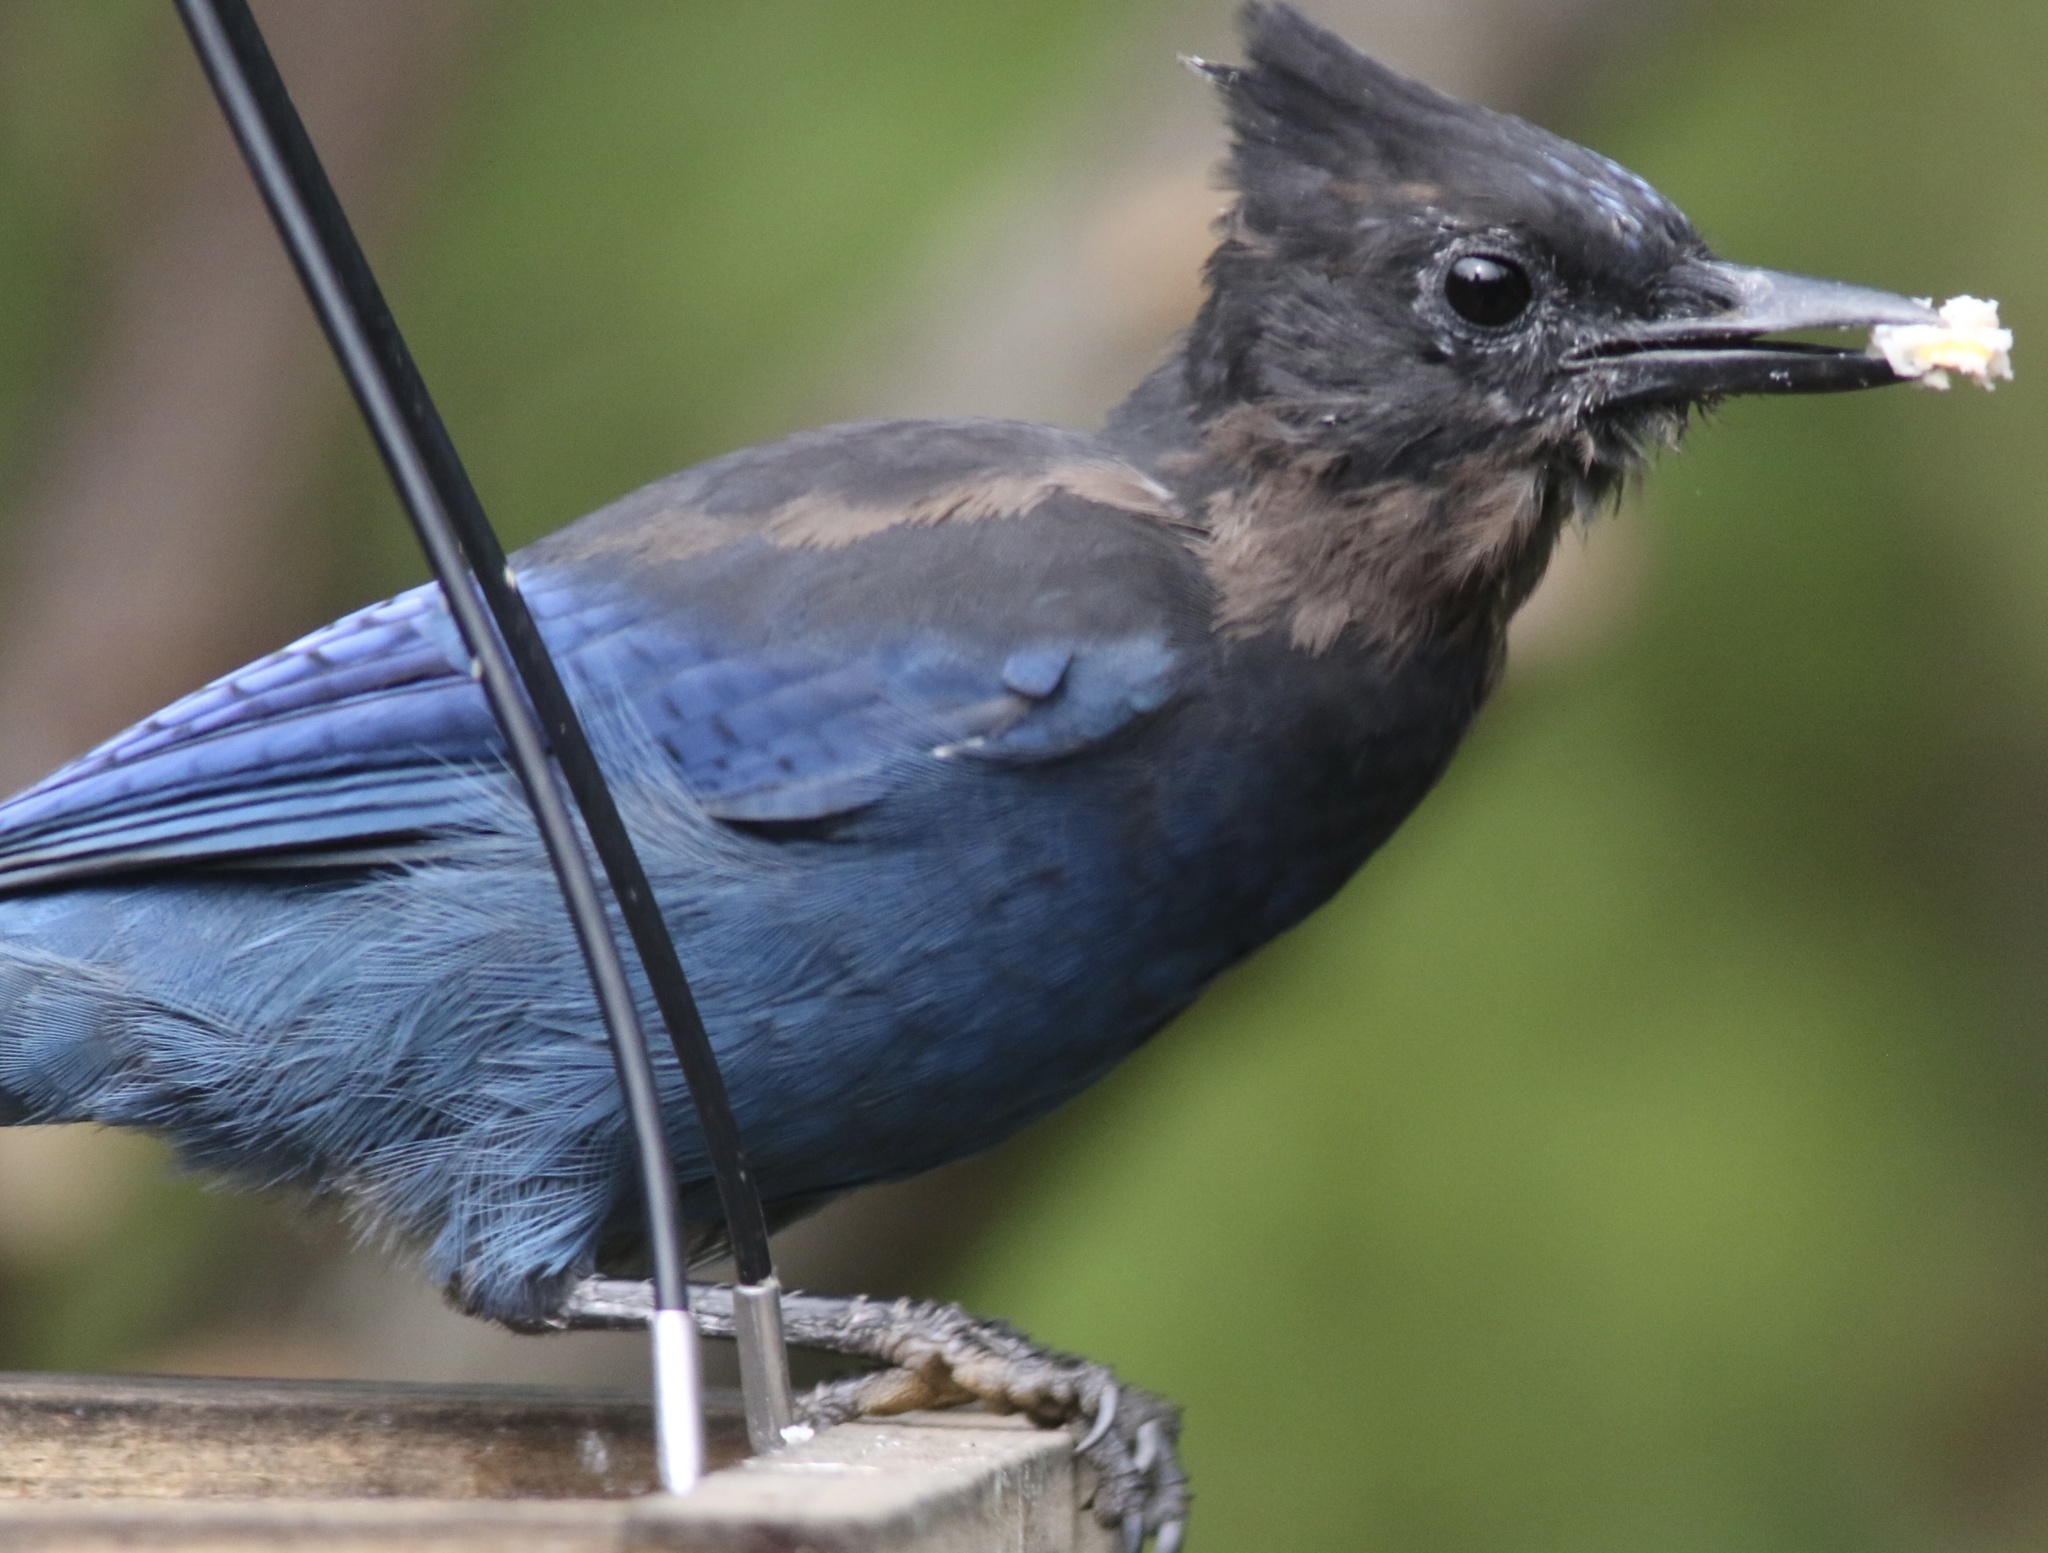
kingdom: Animalia
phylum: Chordata
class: Aves
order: Passeriformes
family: Corvidae
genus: Cyanocitta
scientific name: Cyanocitta stelleri
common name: Steller's jay
